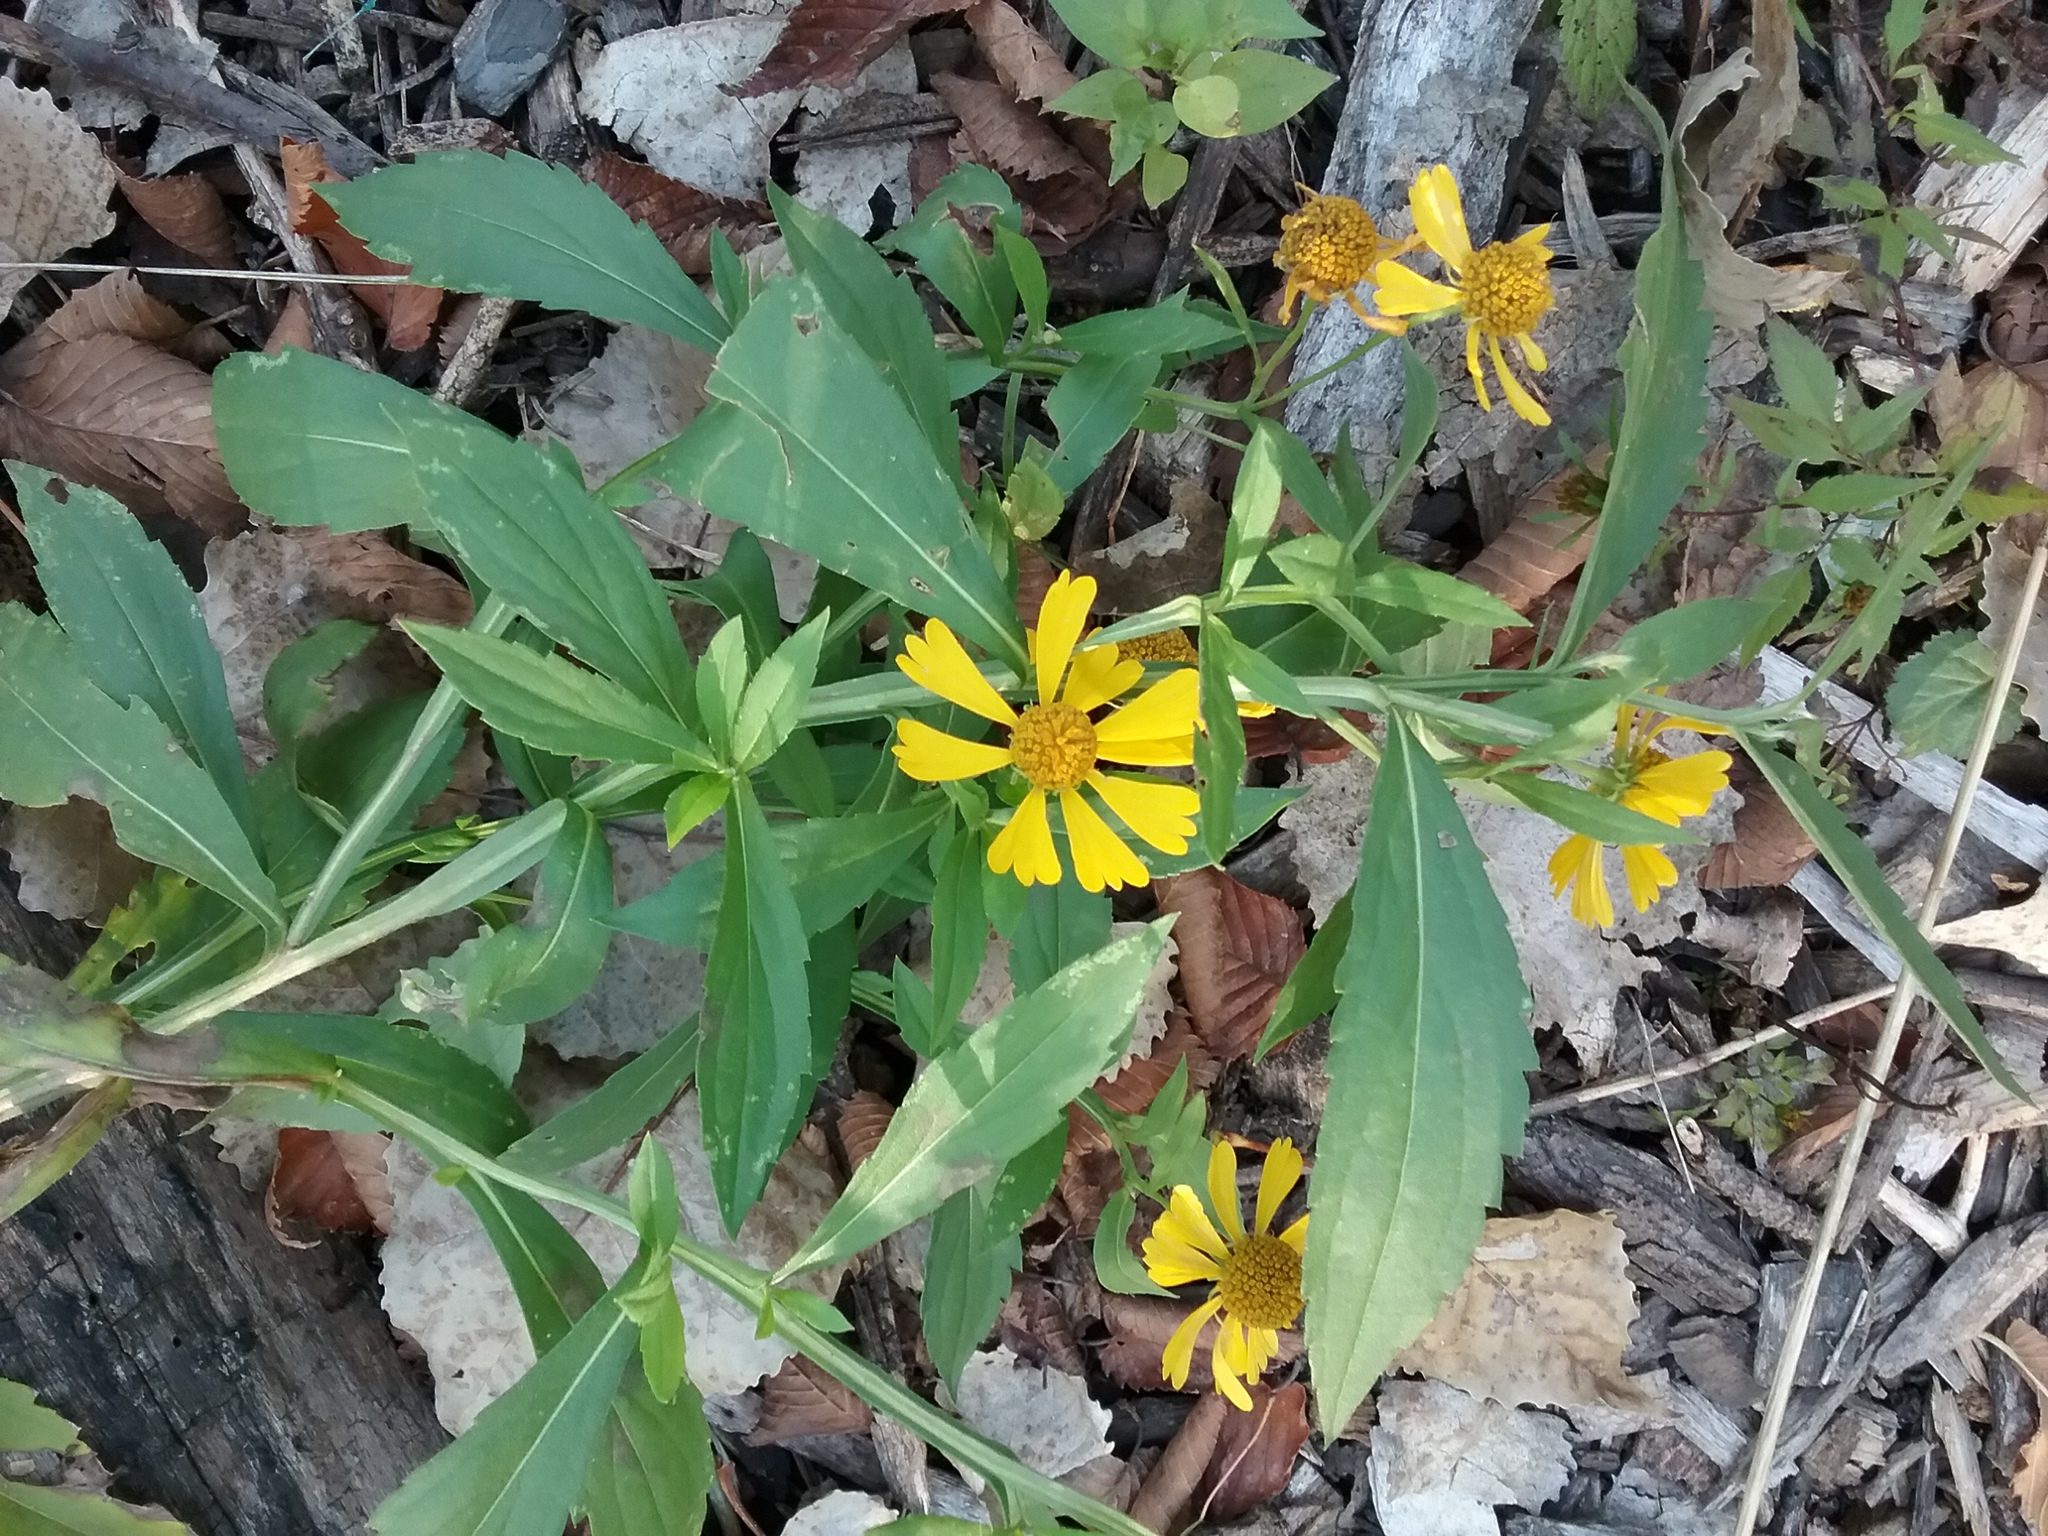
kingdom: Plantae
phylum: Tracheophyta
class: Magnoliopsida
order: Asterales
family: Asteraceae
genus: Helenium
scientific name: Helenium autumnale
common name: Sneezeweed
